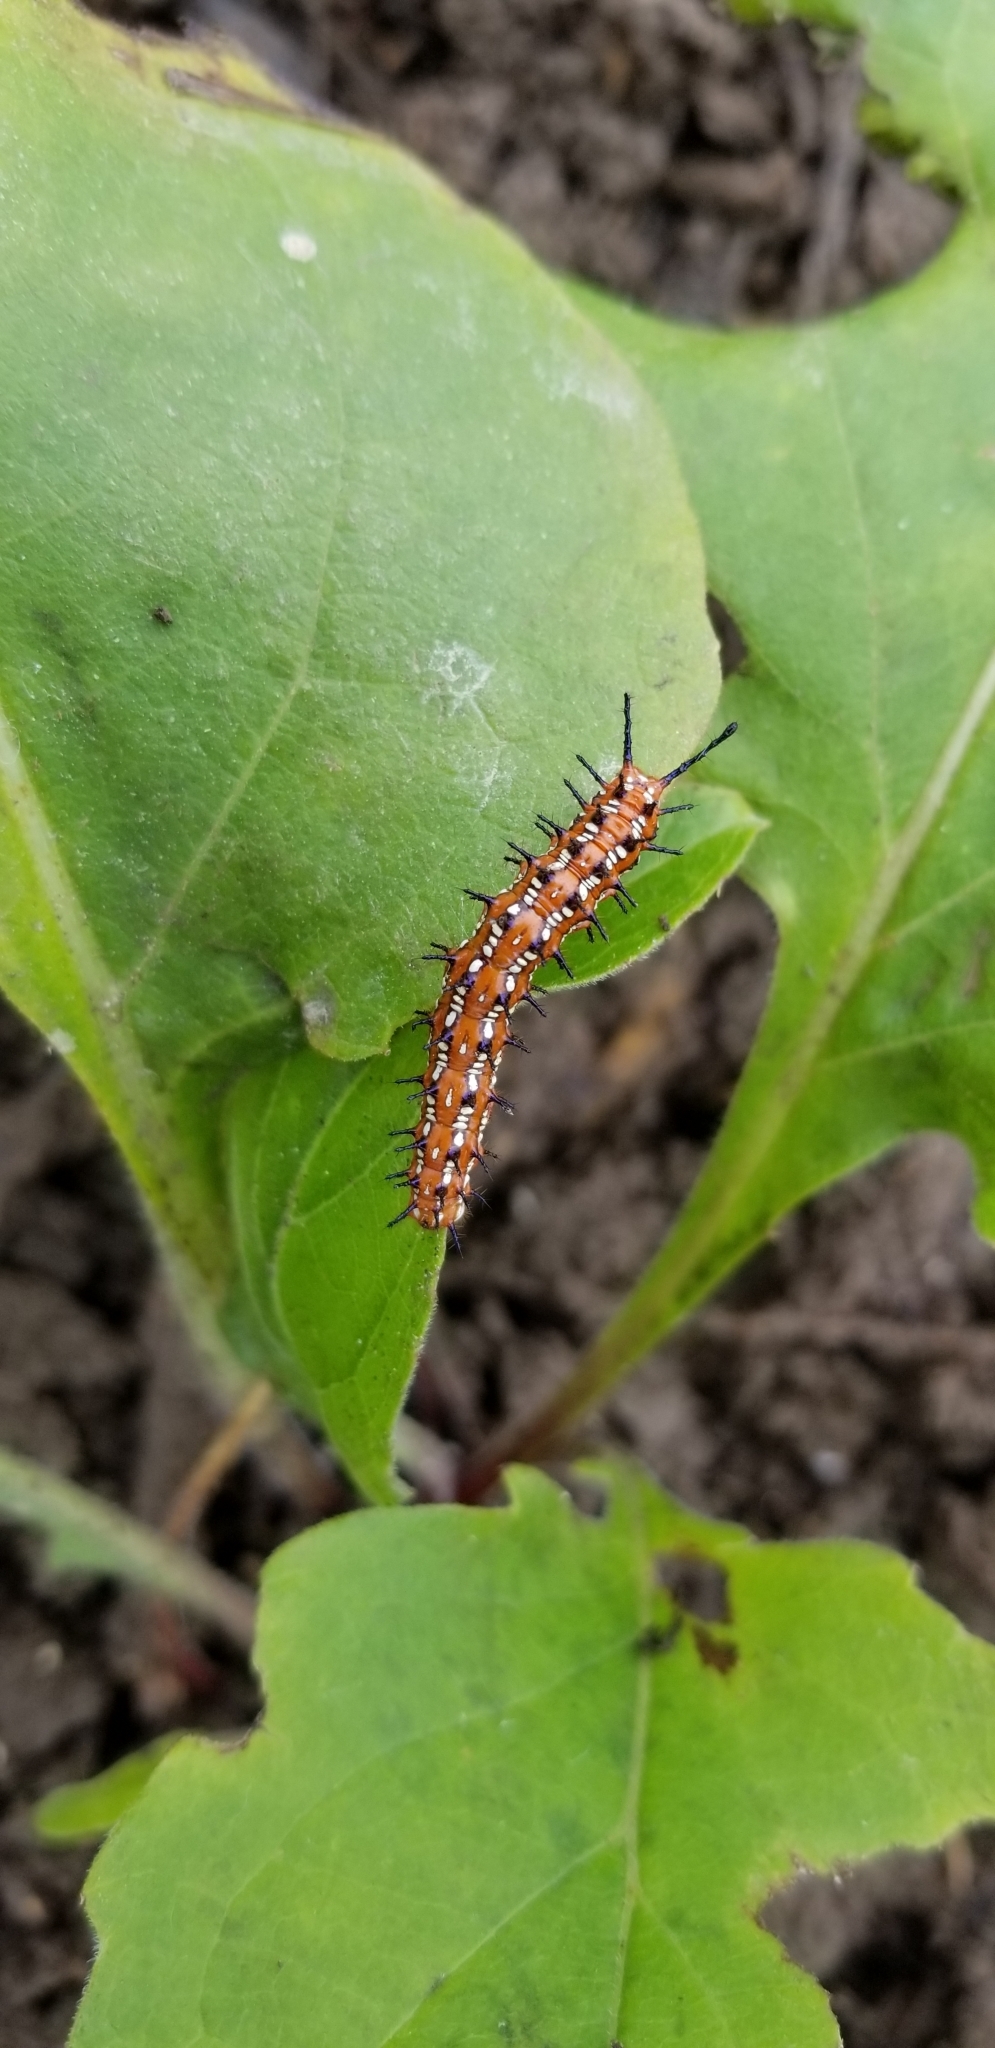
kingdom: Animalia
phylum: Arthropoda
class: Insecta
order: Lepidoptera
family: Nymphalidae
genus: Euptoieta
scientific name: Euptoieta claudia
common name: Variegated fritillary
